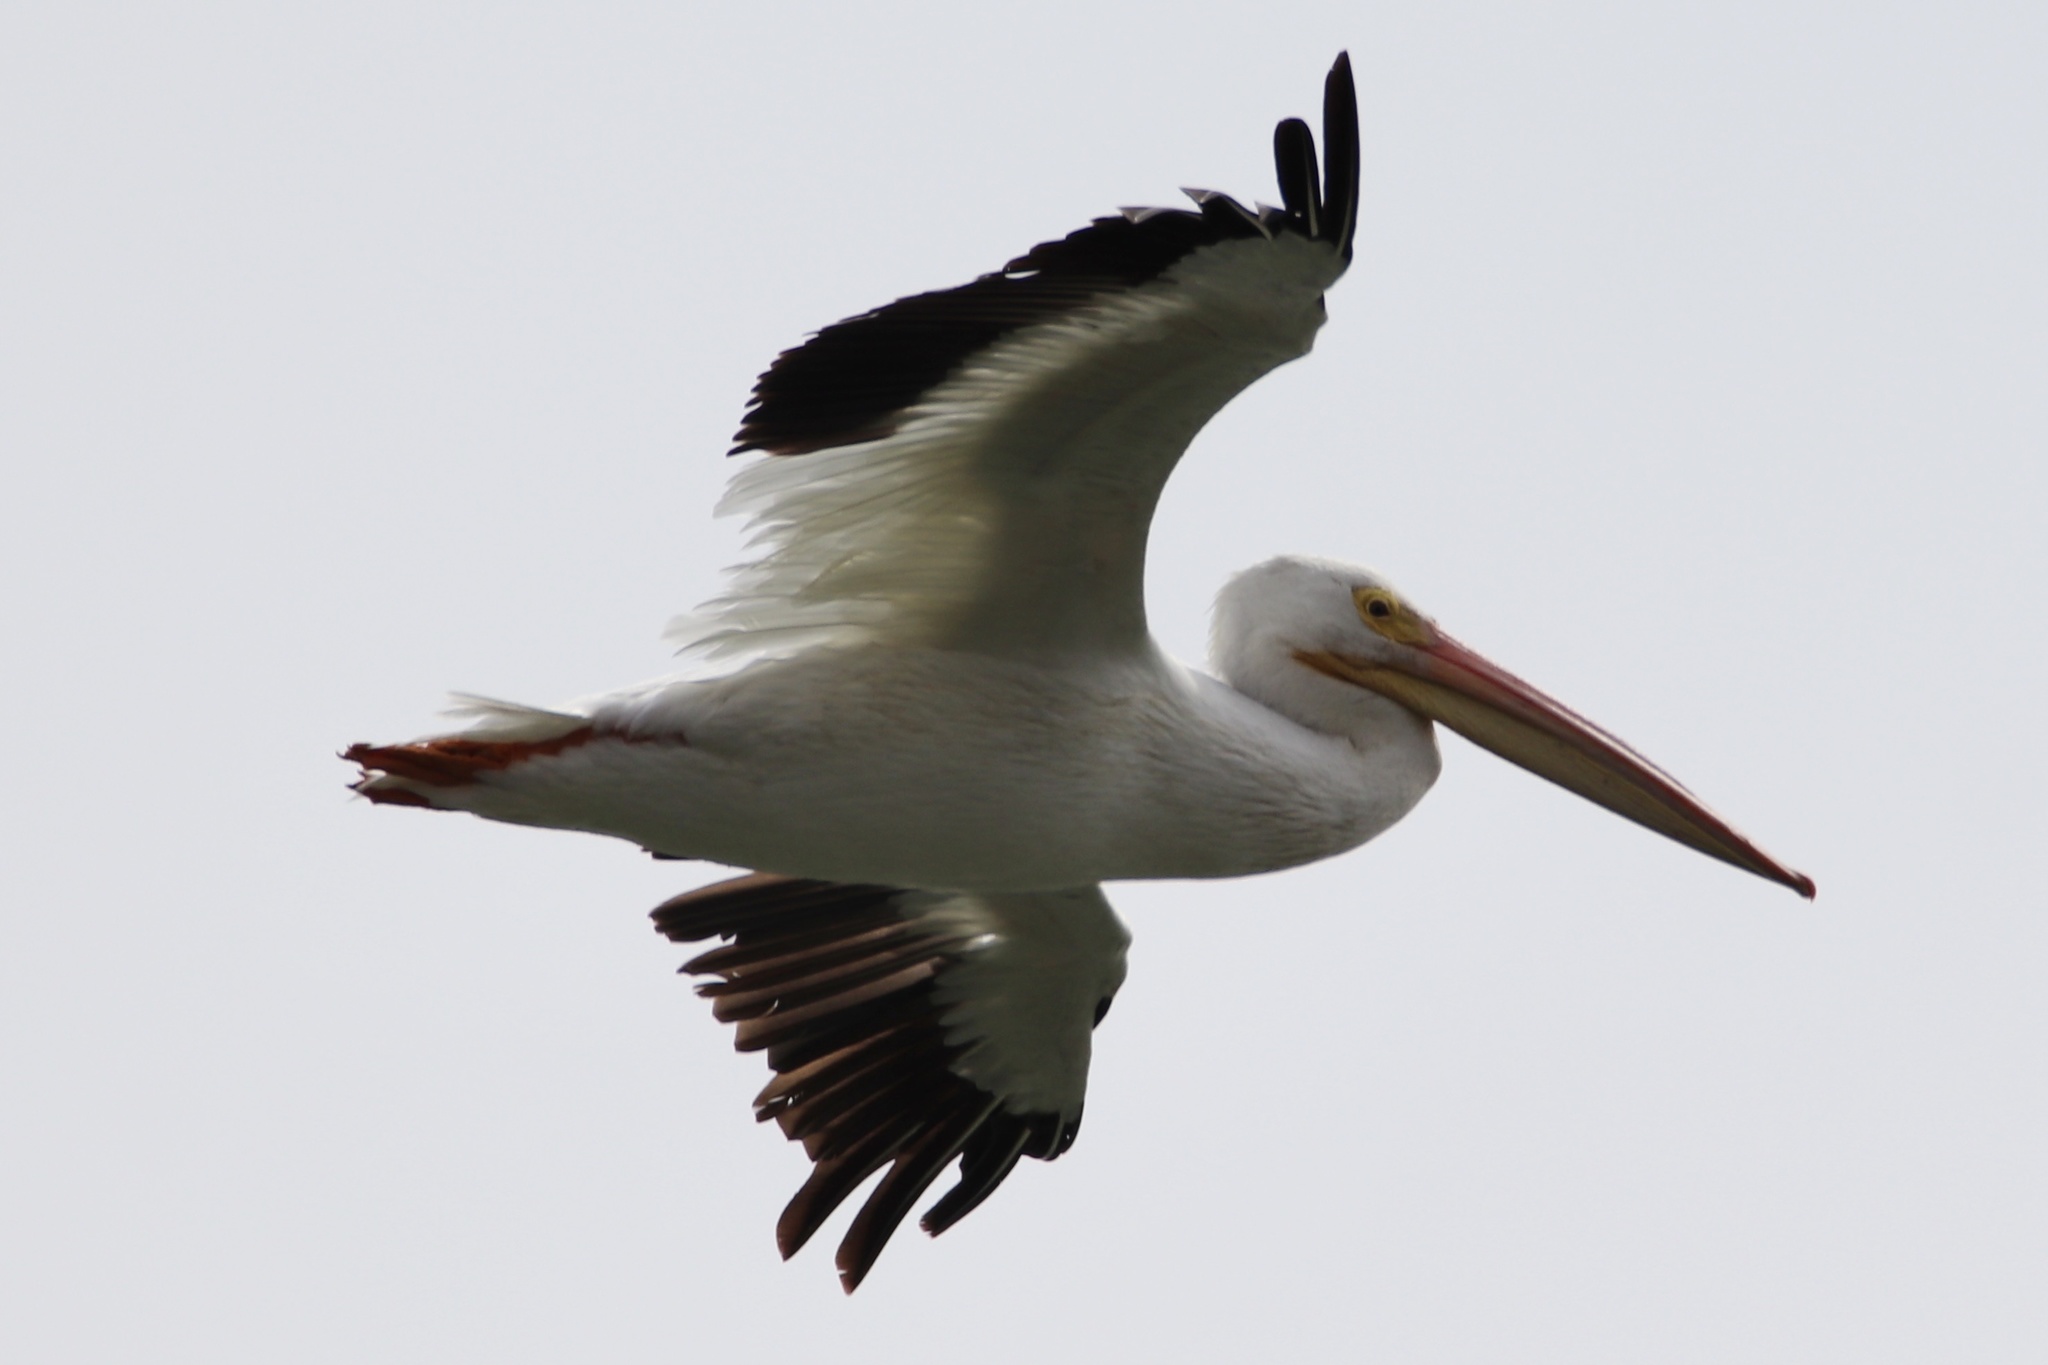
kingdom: Animalia
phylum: Chordata
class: Aves
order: Pelecaniformes
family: Pelecanidae
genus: Pelecanus
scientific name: Pelecanus erythrorhynchos
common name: American white pelican
